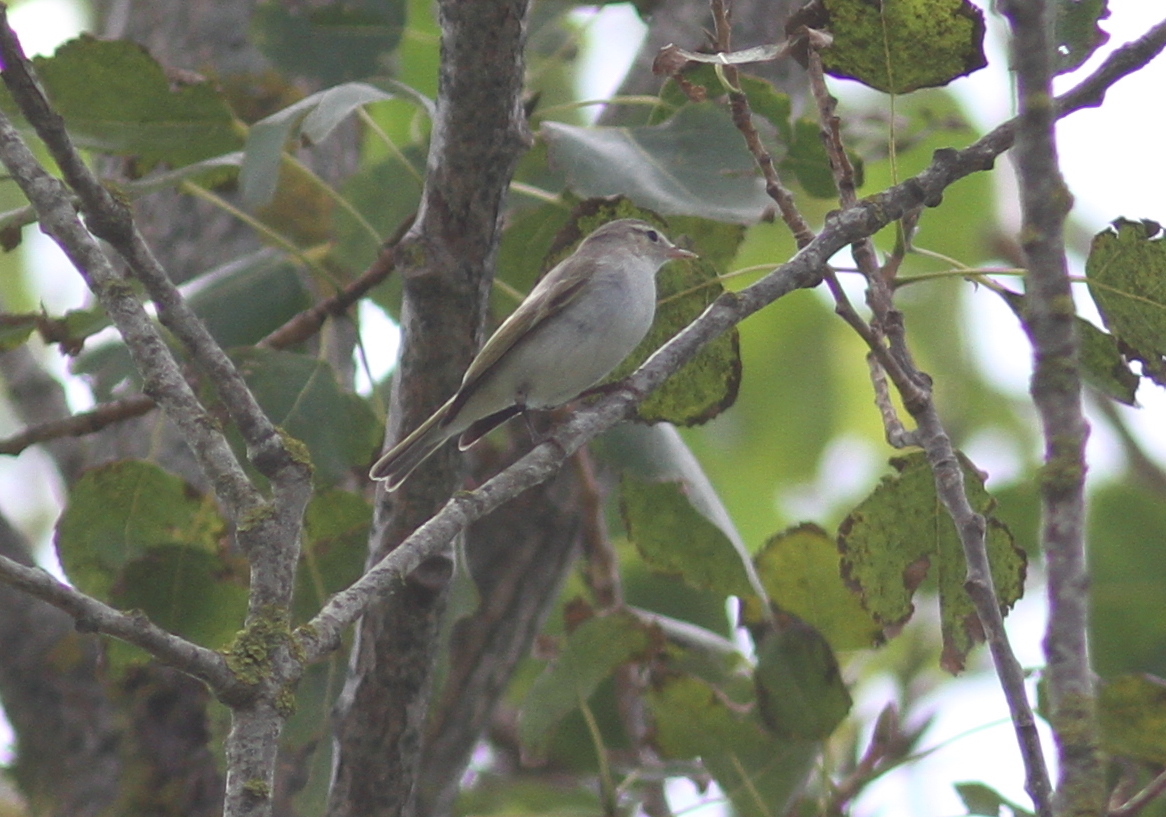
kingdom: Animalia
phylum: Chordata
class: Aves
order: Passeriformes
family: Phylloscopidae
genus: Phylloscopus
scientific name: Phylloscopus orientalis
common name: Eastern bonelli's warbler
